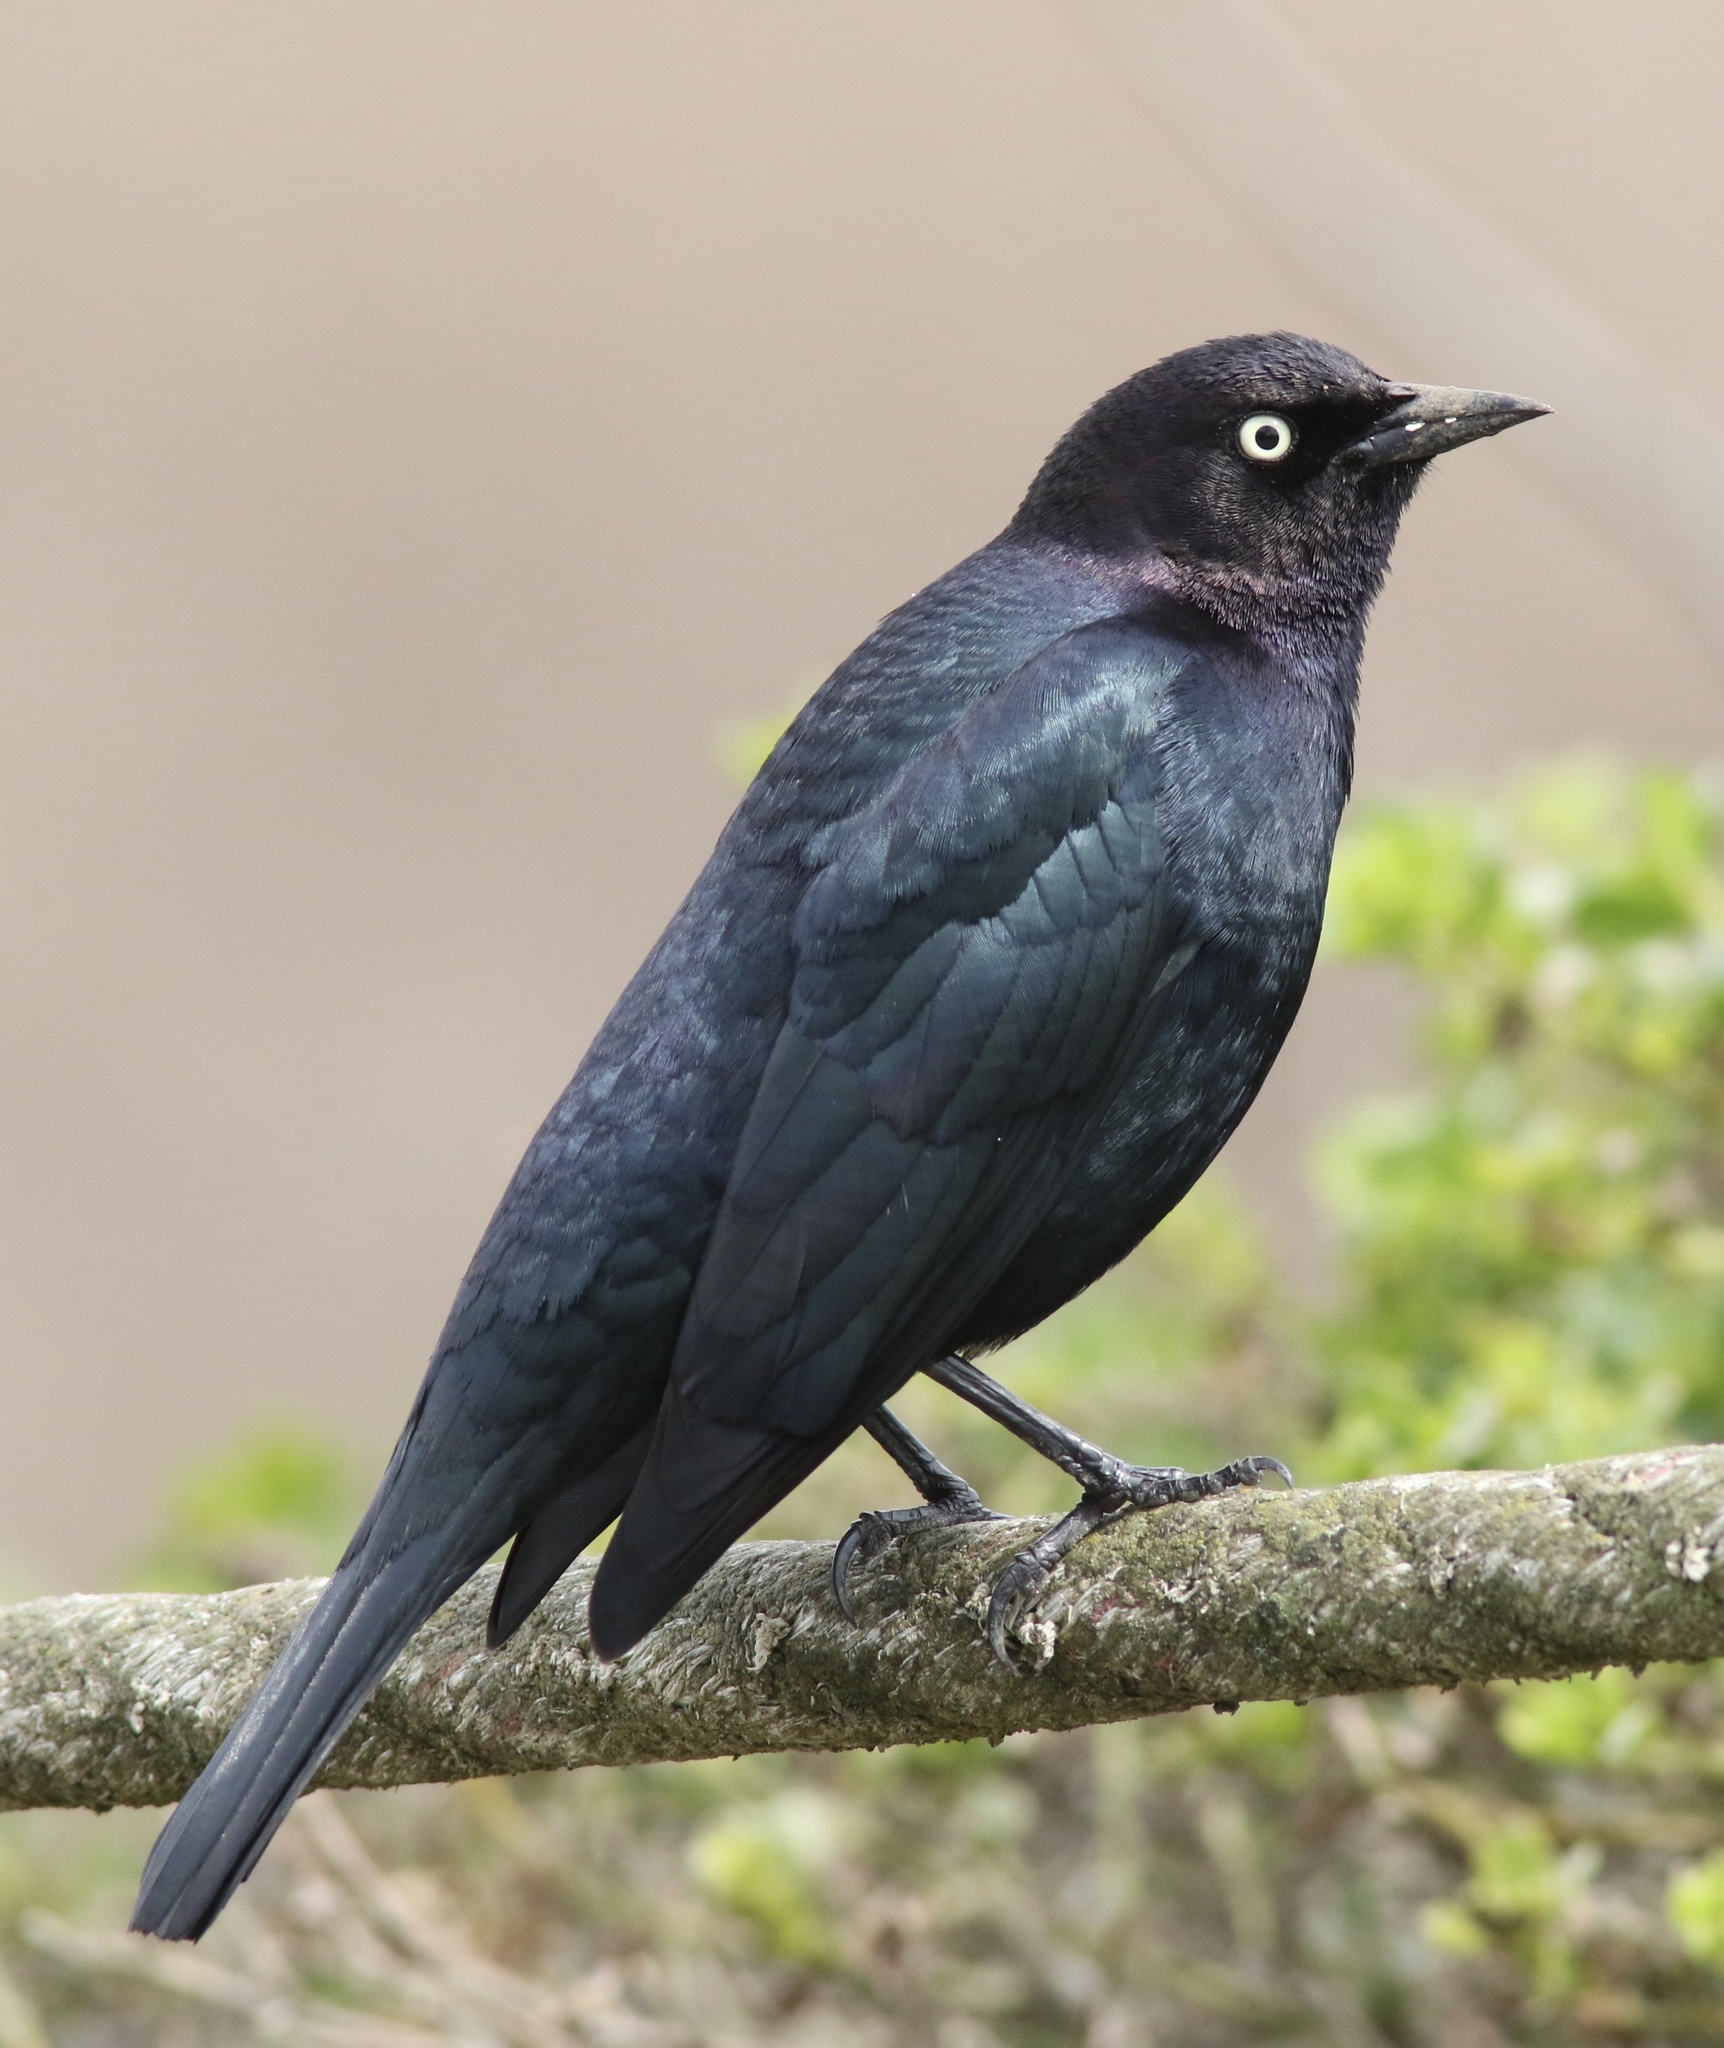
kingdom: Animalia
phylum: Chordata
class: Aves
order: Passeriformes
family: Icteridae
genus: Euphagus
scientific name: Euphagus cyanocephalus
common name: Brewer's blackbird
